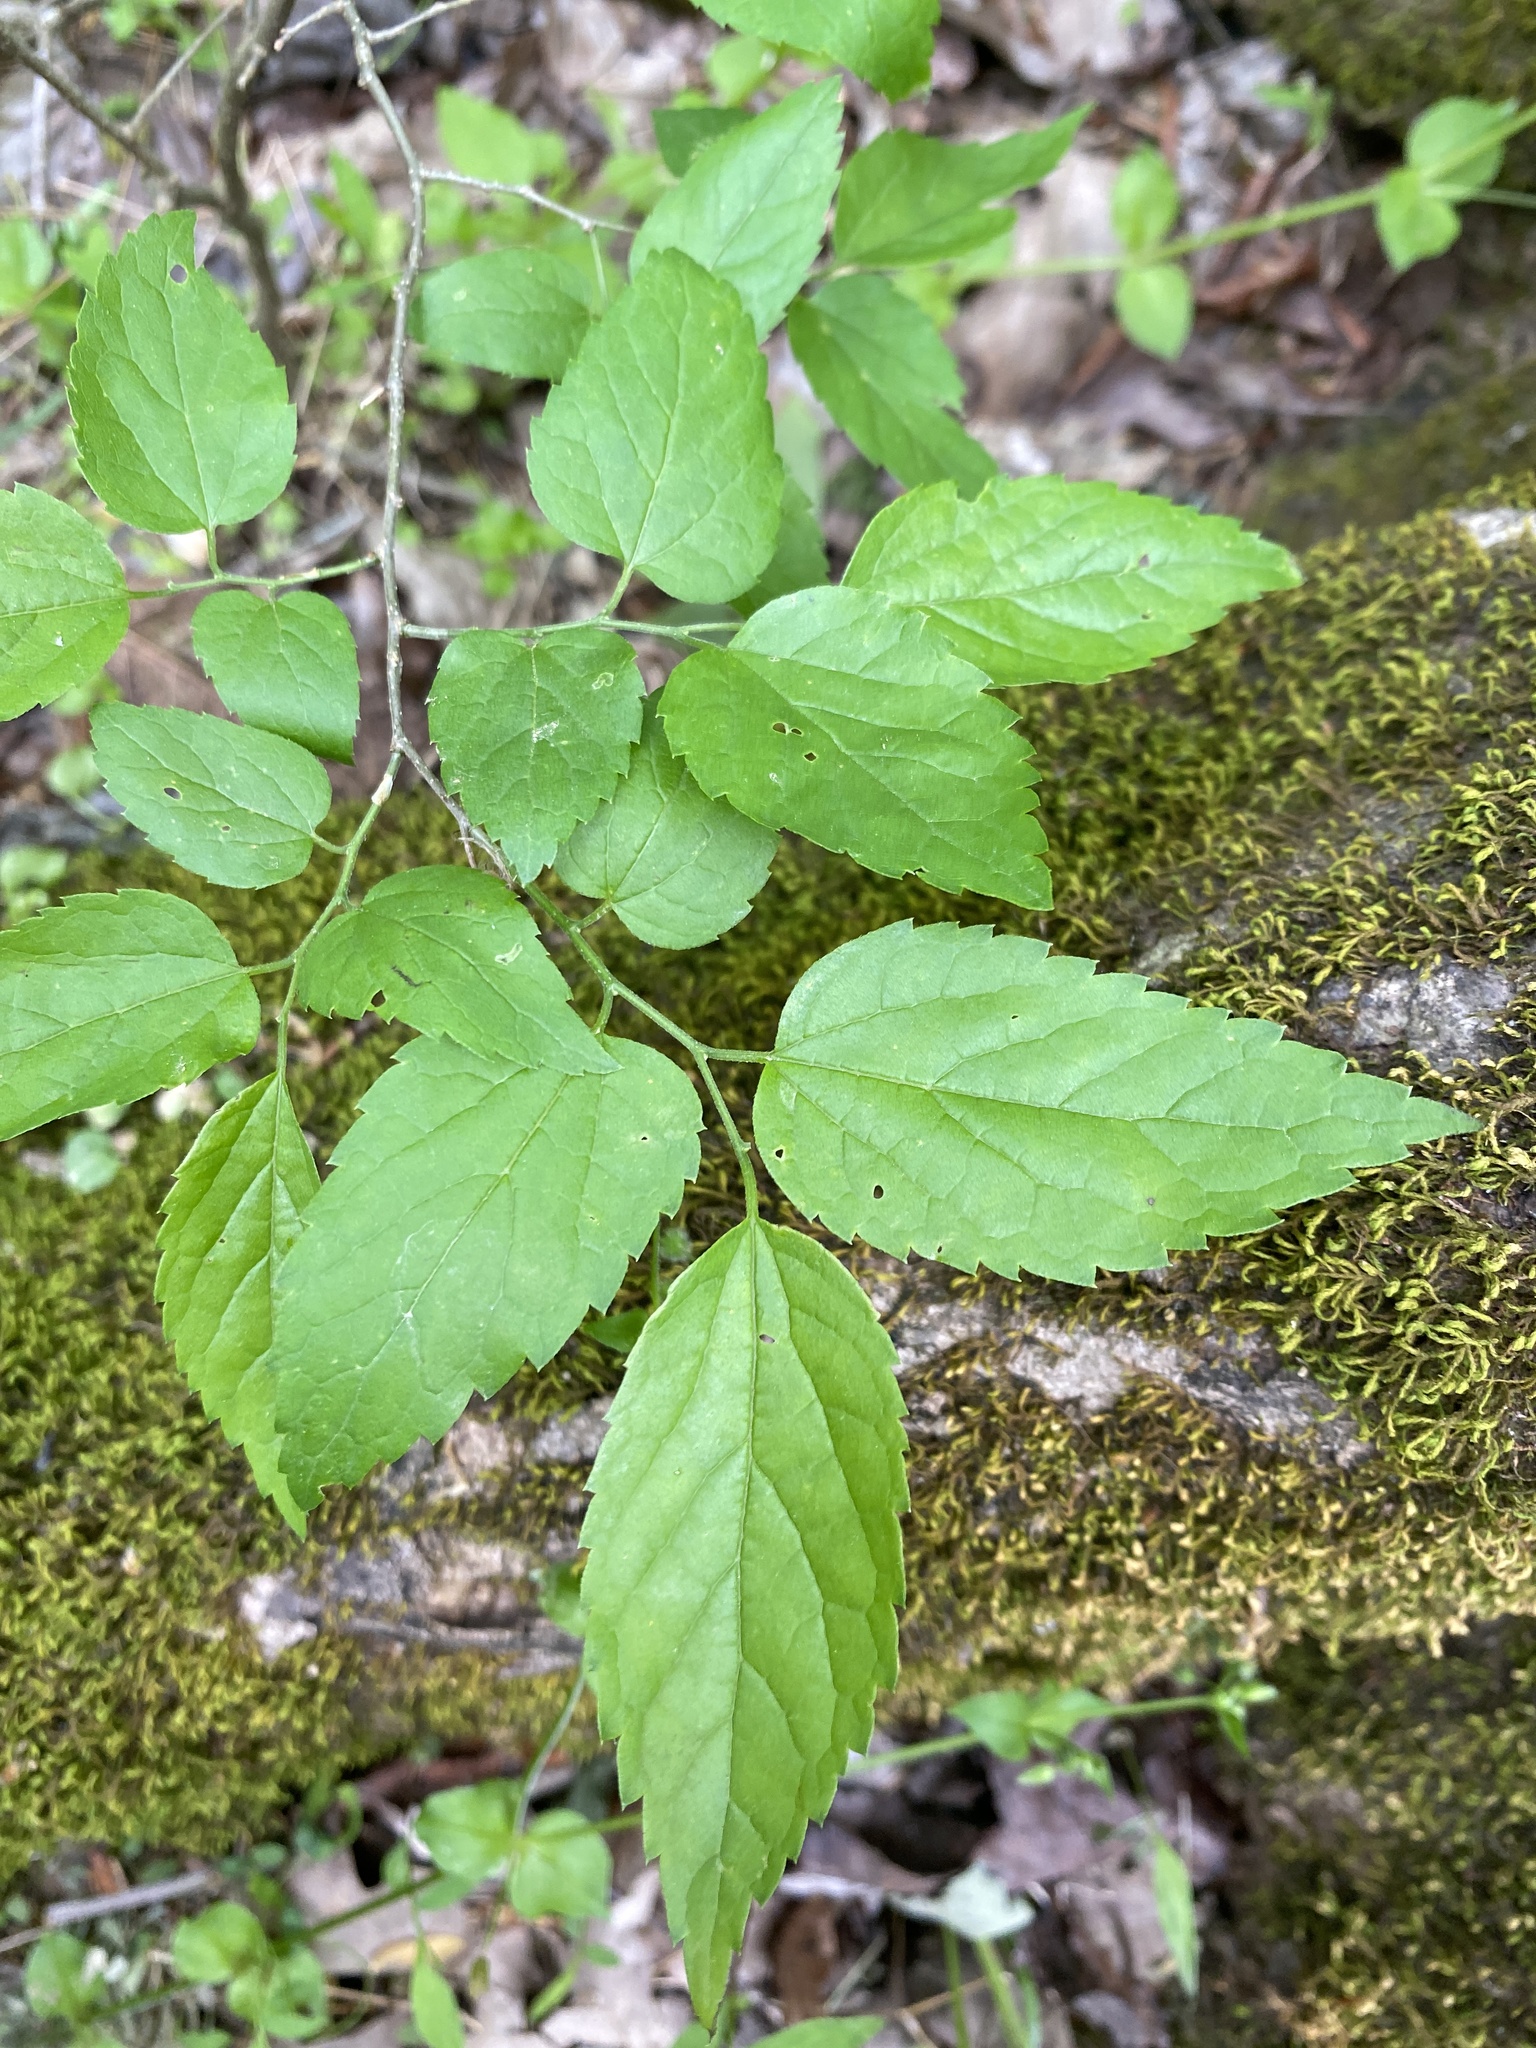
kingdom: Plantae
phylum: Tracheophyta
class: Magnoliopsida
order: Rosales
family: Cannabaceae
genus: Celtis
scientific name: Celtis laevigata
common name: Sugarberry
